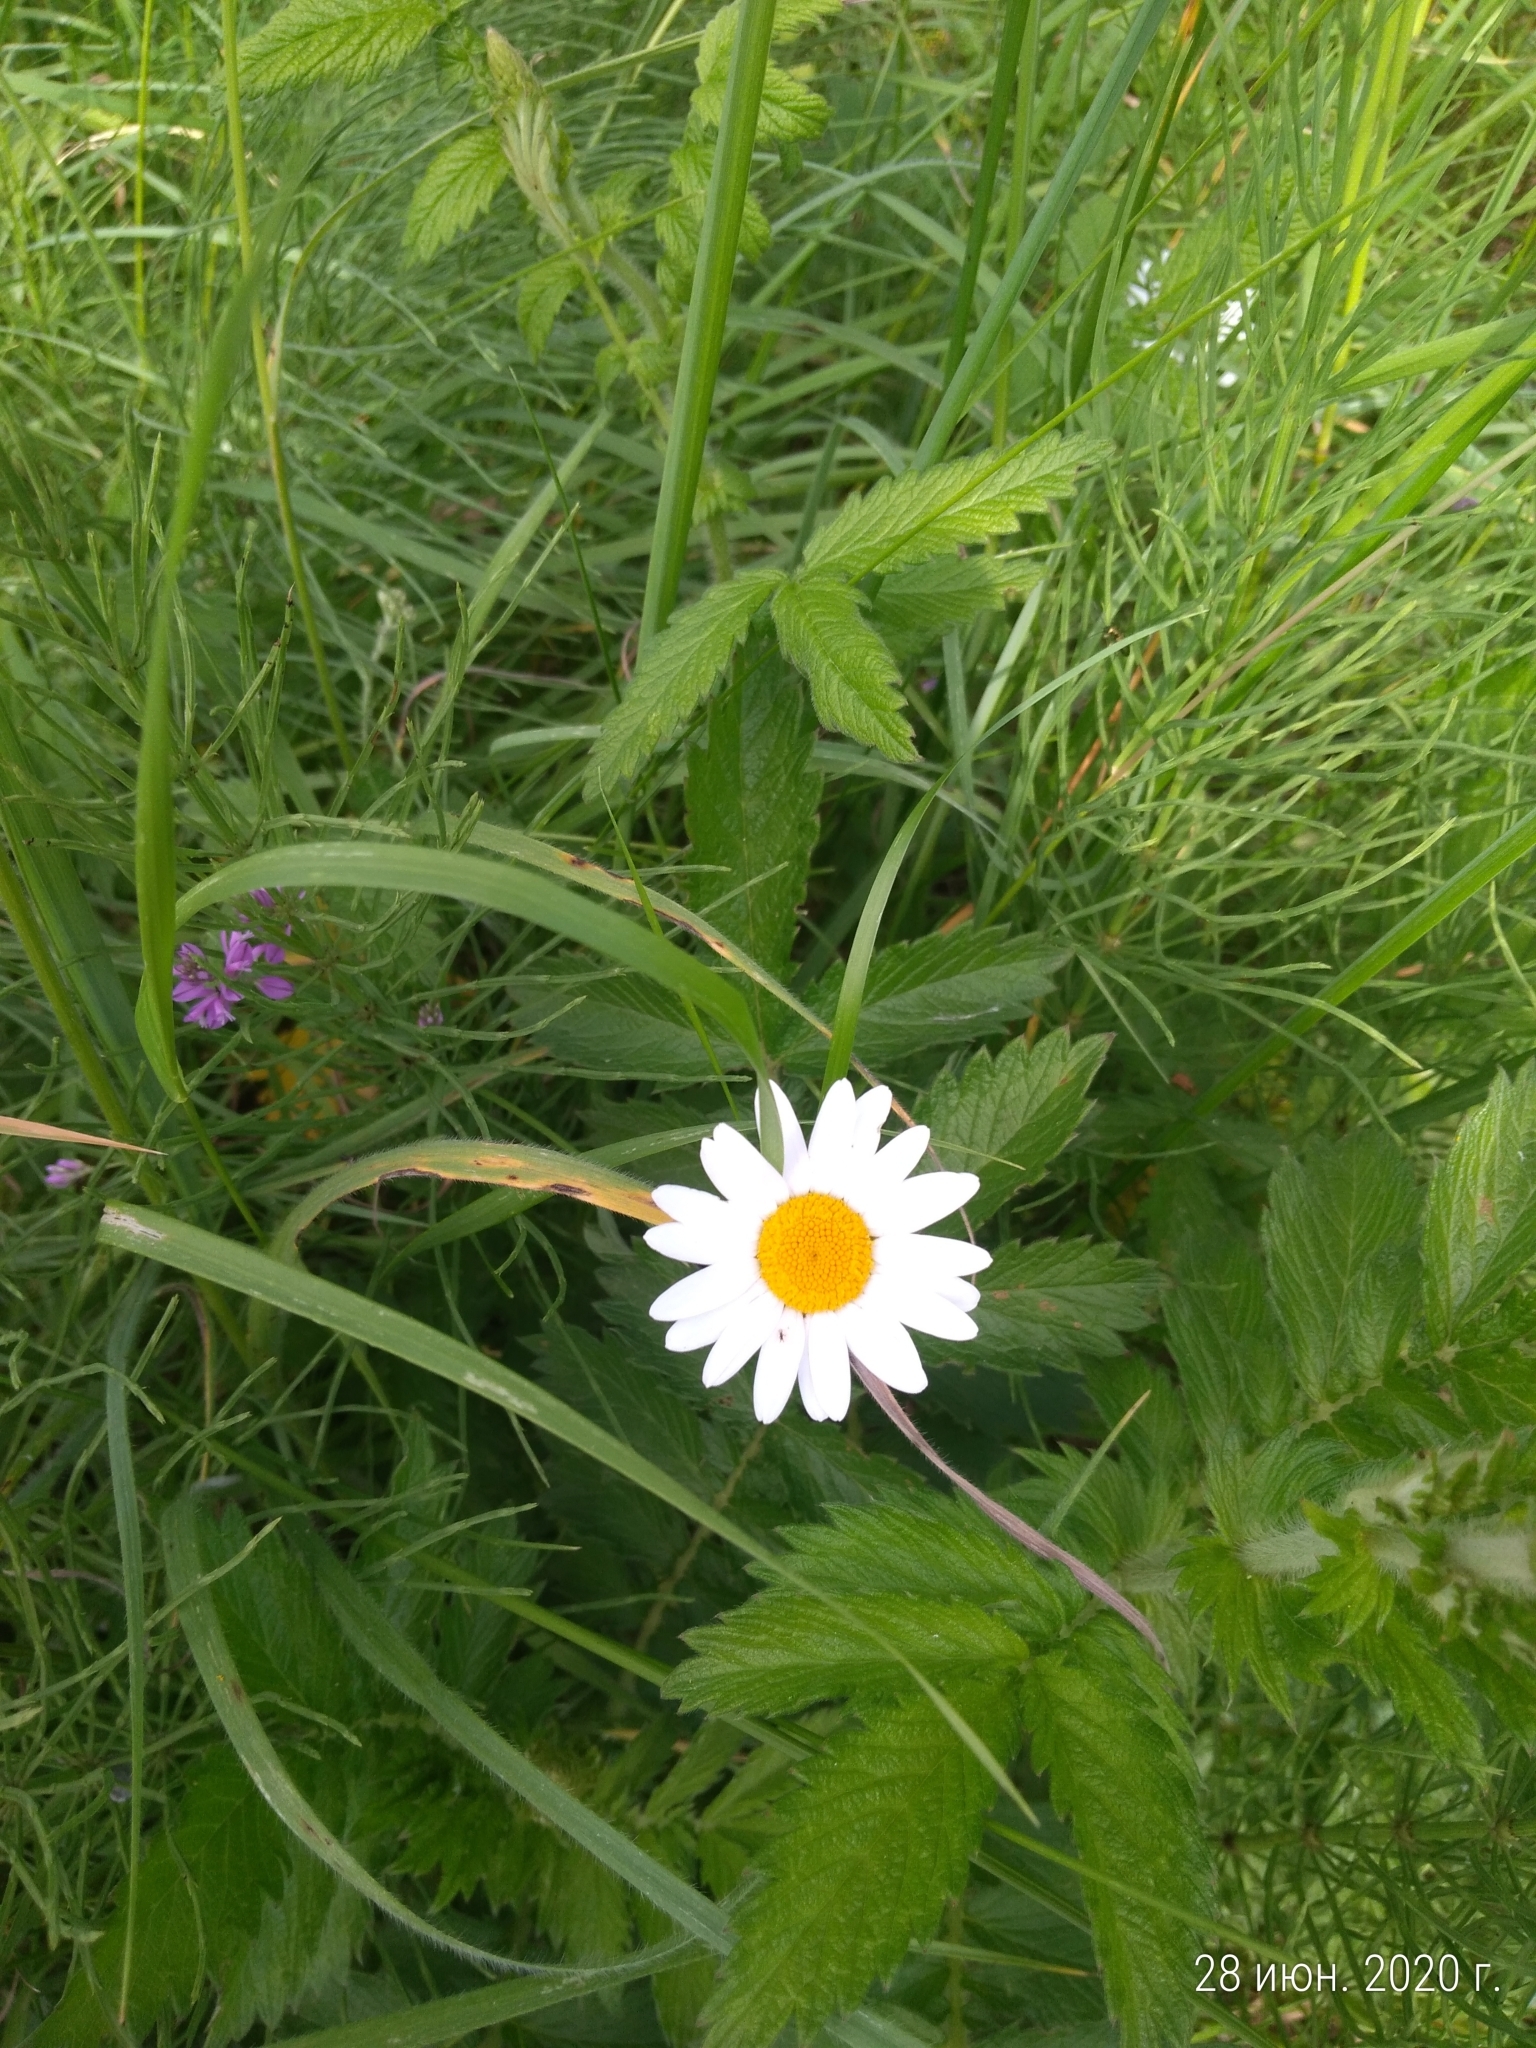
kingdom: Plantae
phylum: Tracheophyta
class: Magnoliopsida
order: Asterales
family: Asteraceae
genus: Leucanthemum
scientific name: Leucanthemum vulgare
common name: Oxeye daisy
